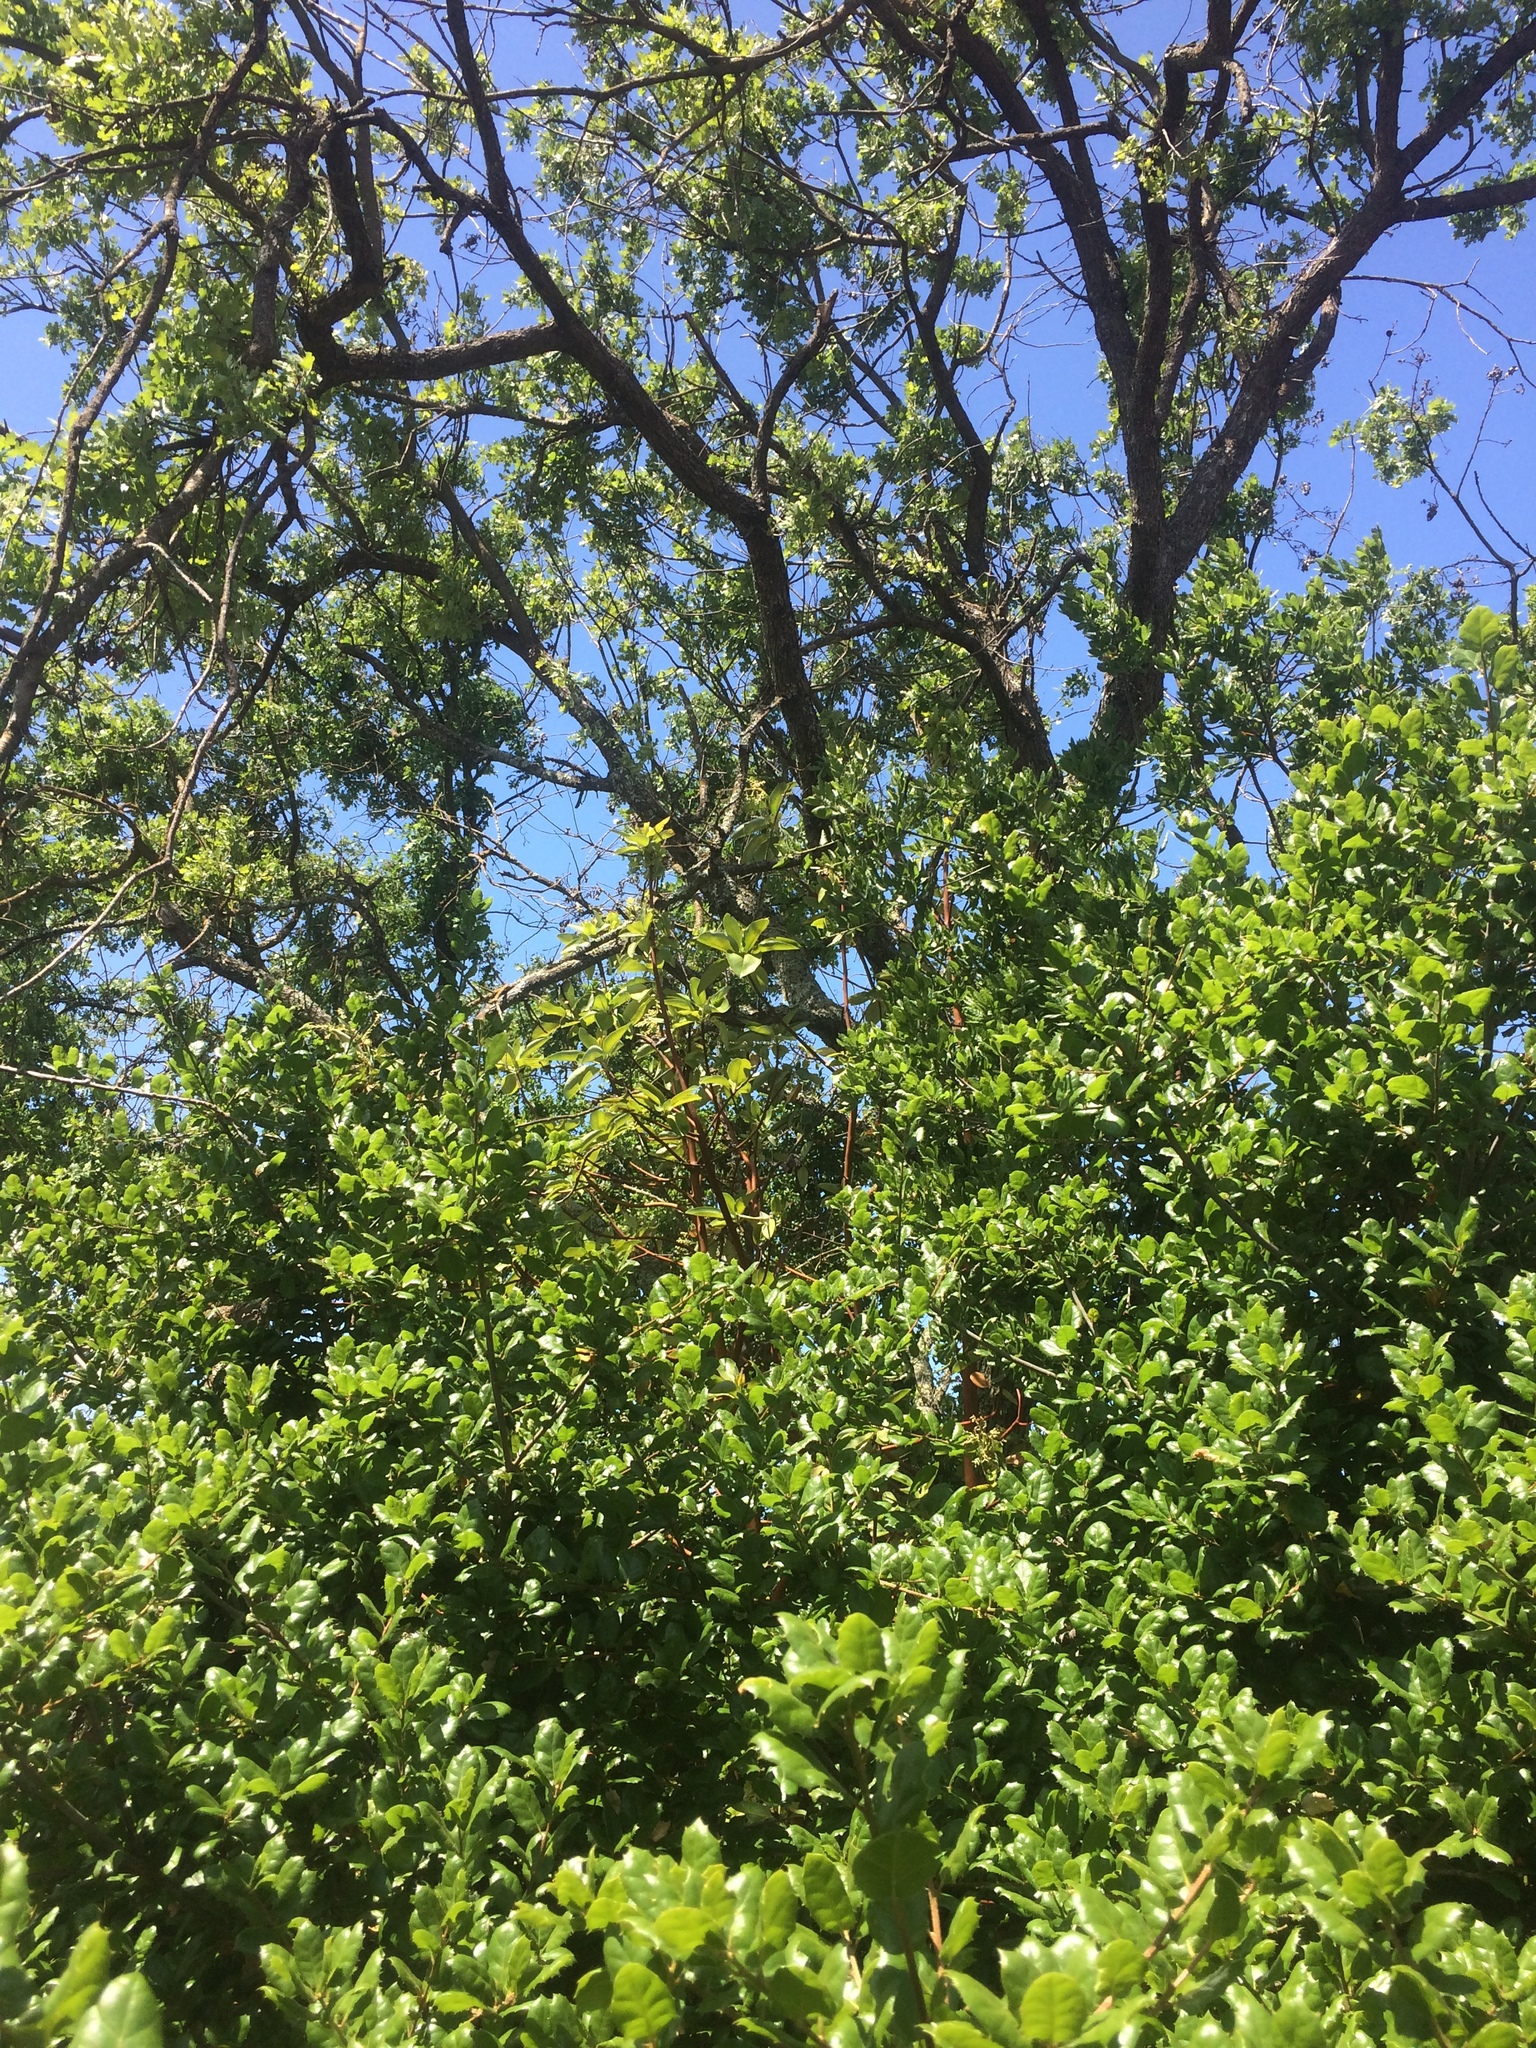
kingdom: Plantae
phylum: Tracheophyta
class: Magnoliopsida
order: Ericales
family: Ericaceae
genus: Arbutus
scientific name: Arbutus menziesii
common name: Pacific madrone
